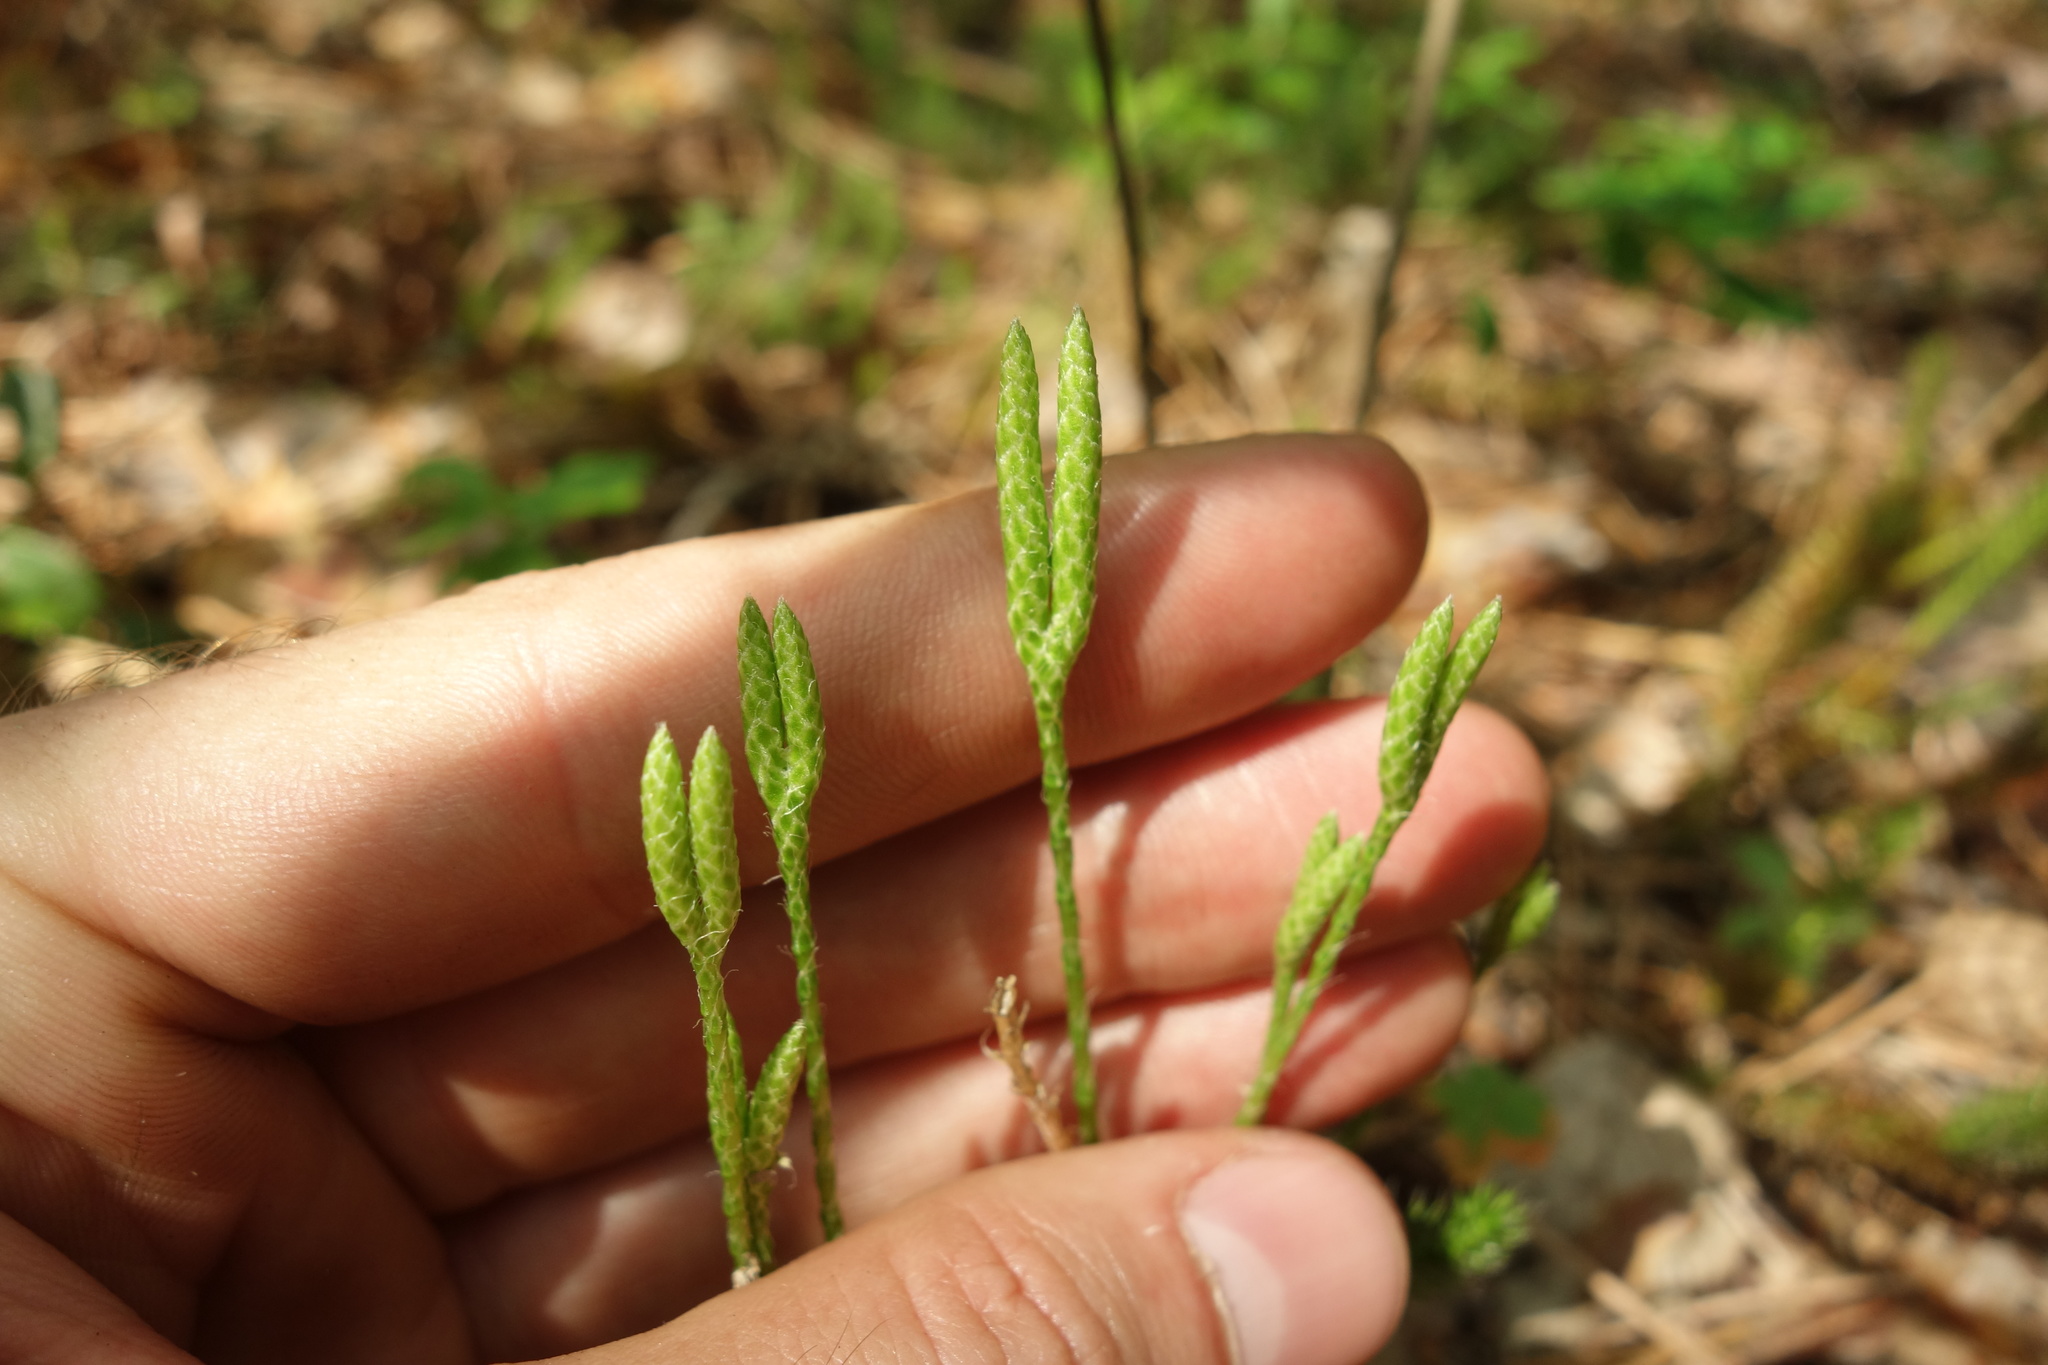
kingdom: Plantae
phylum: Tracheophyta
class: Lycopodiopsida
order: Lycopodiales
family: Lycopodiaceae
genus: Lycopodium
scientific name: Lycopodium clavatum
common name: Stag's-horn clubmoss
